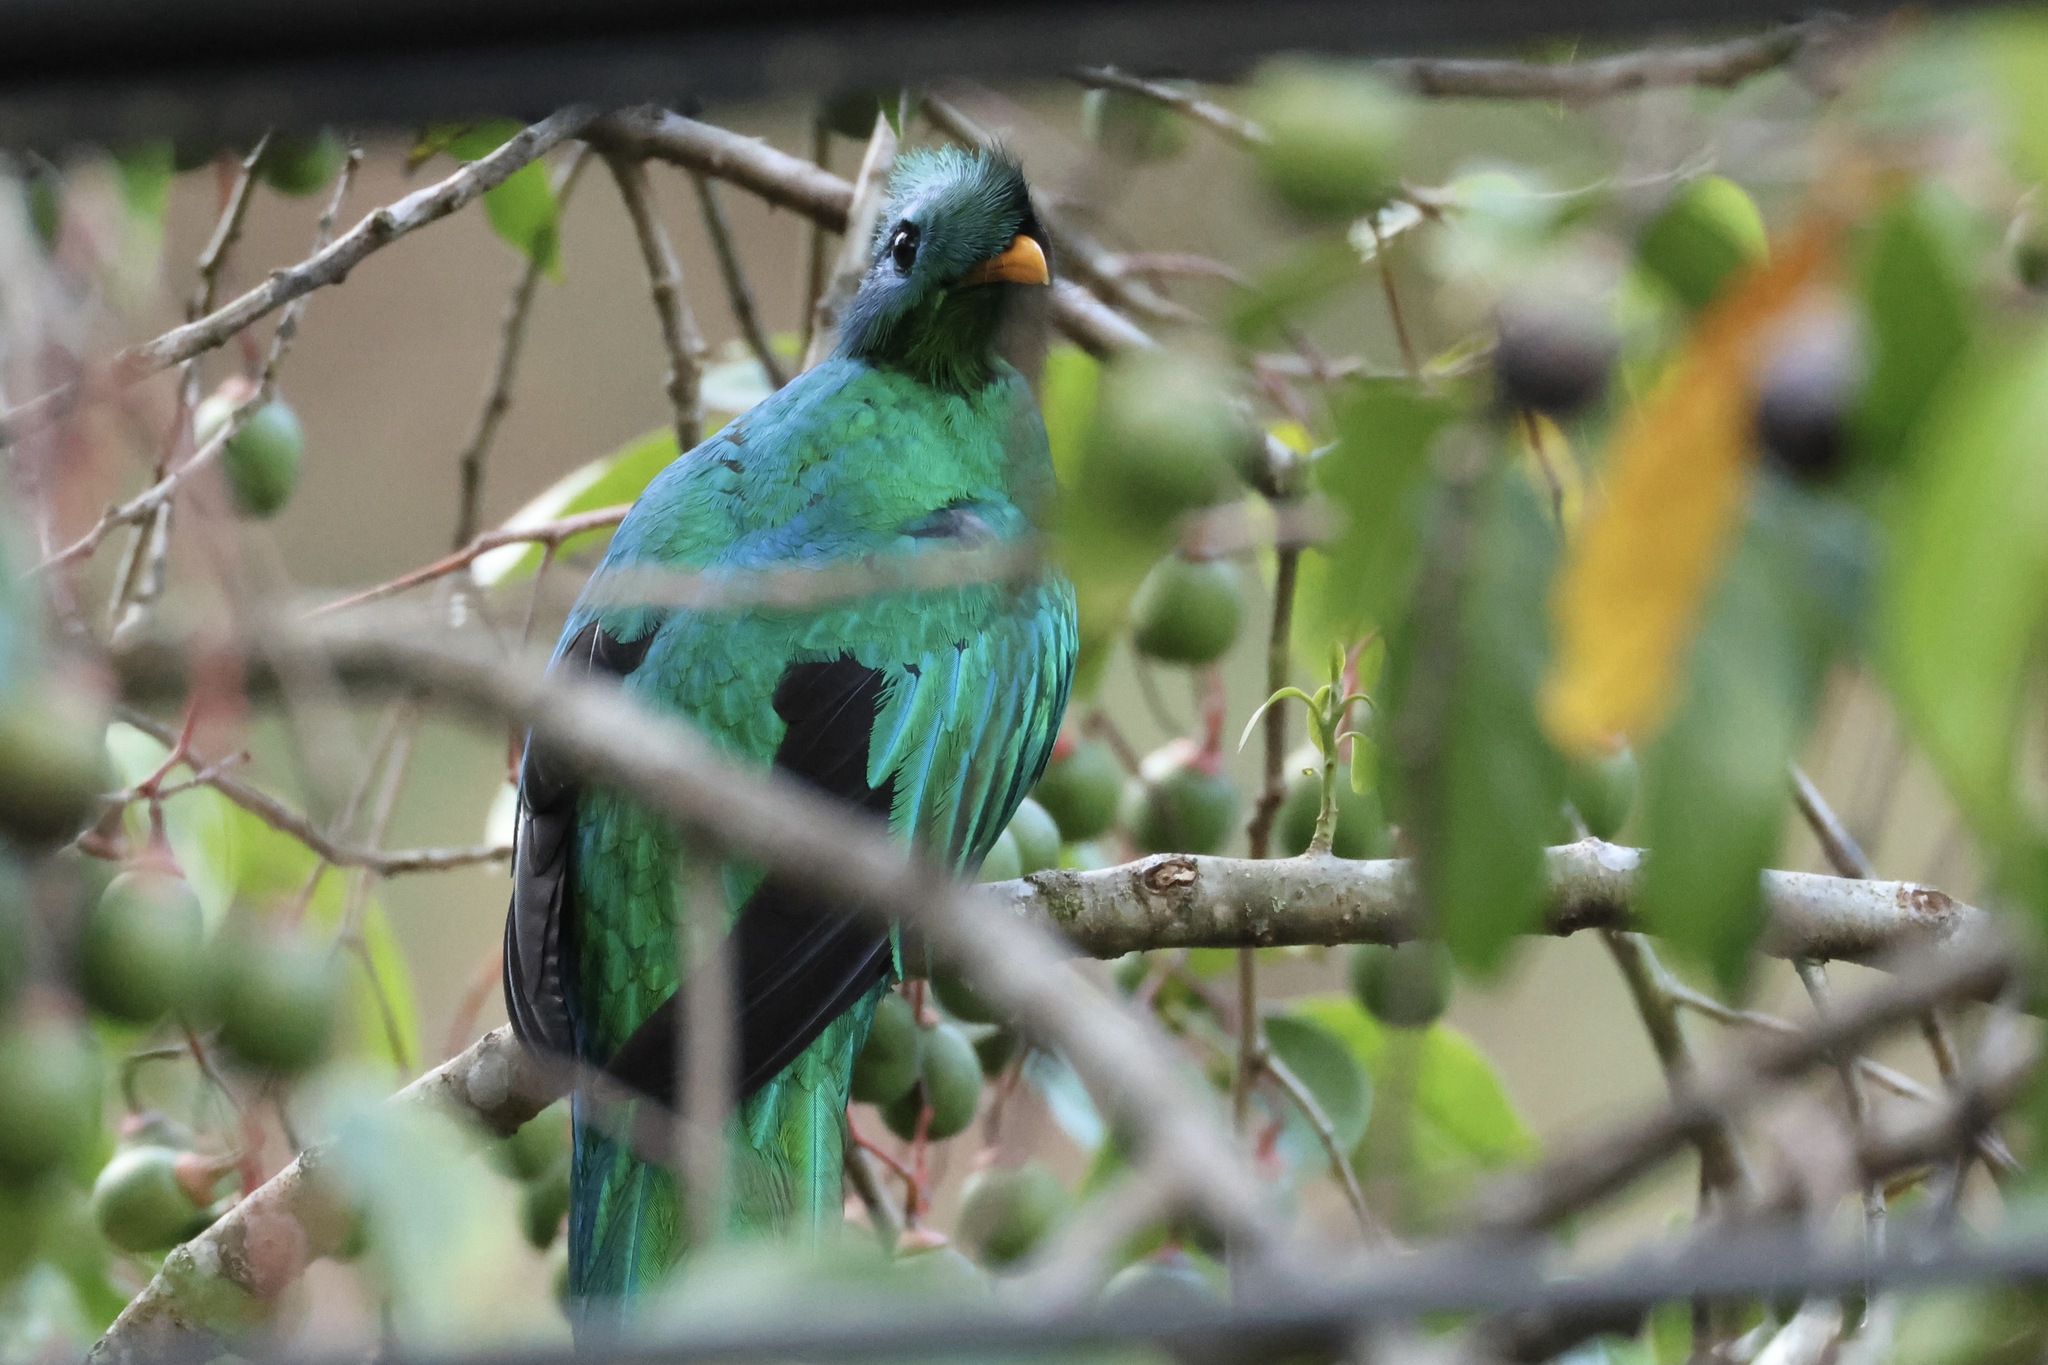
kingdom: Animalia
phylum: Chordata
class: Aves
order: Trogoniformes
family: Trogonidae
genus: Pharomachrus
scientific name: Pharomachrus mocinno
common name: Resplendent quetzal
